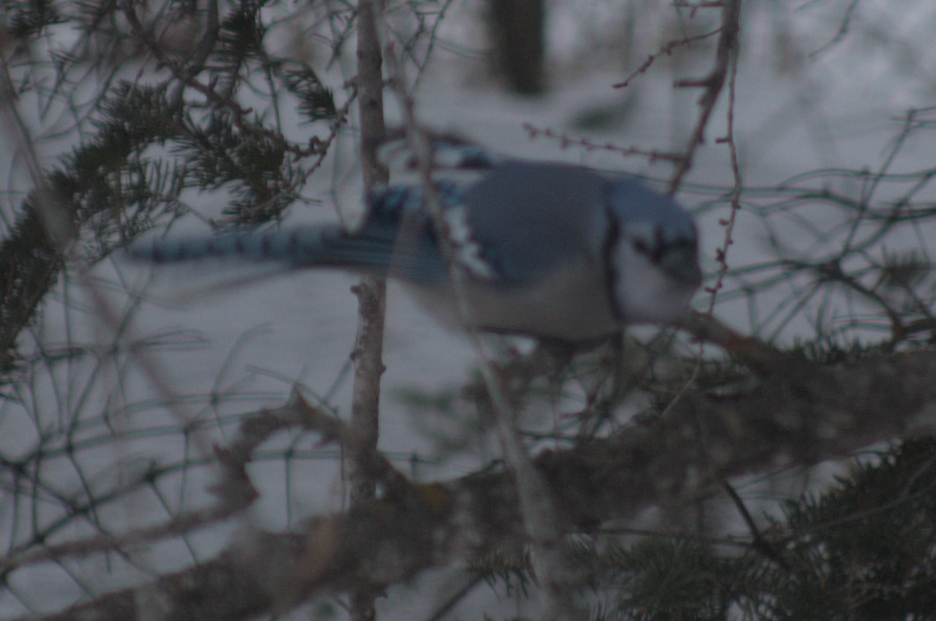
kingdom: Animalia
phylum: Chordata
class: Aves
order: Passeriformes
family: Corvidae
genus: Cyanocitta
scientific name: Cyanocitta cristata
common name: Blue jay
